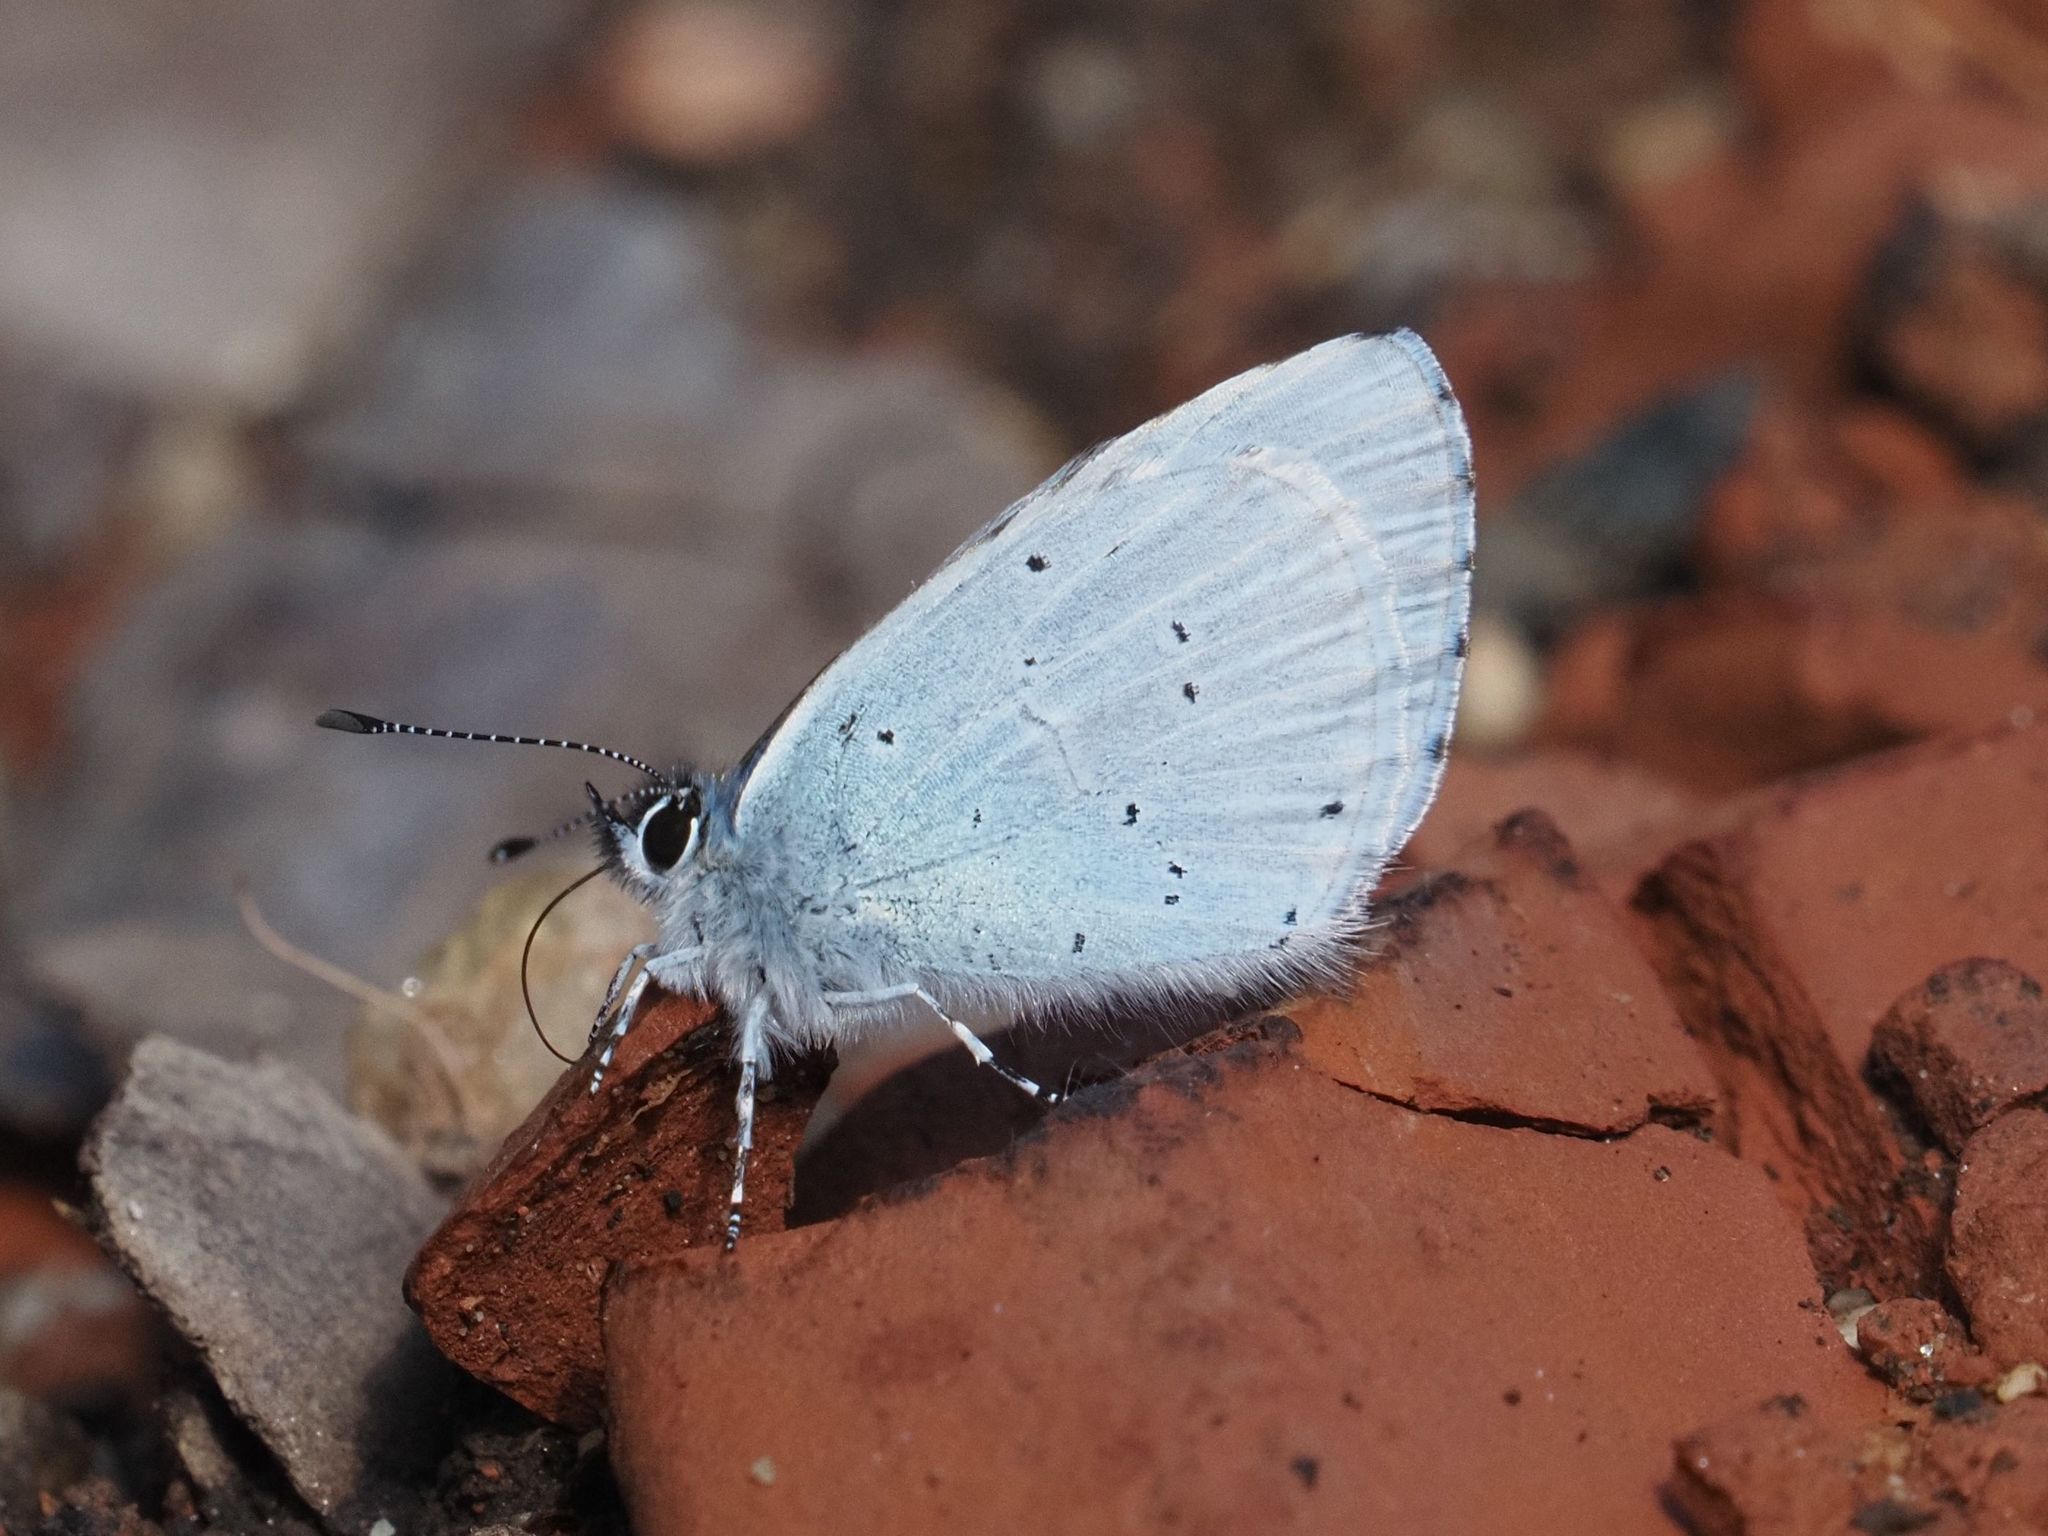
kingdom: Animalia
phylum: Arthropoda
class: Insecta
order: Lepidoptera
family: Lycaenidae
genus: Celastrina
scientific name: Celastrina argiolus
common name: Holly blue
